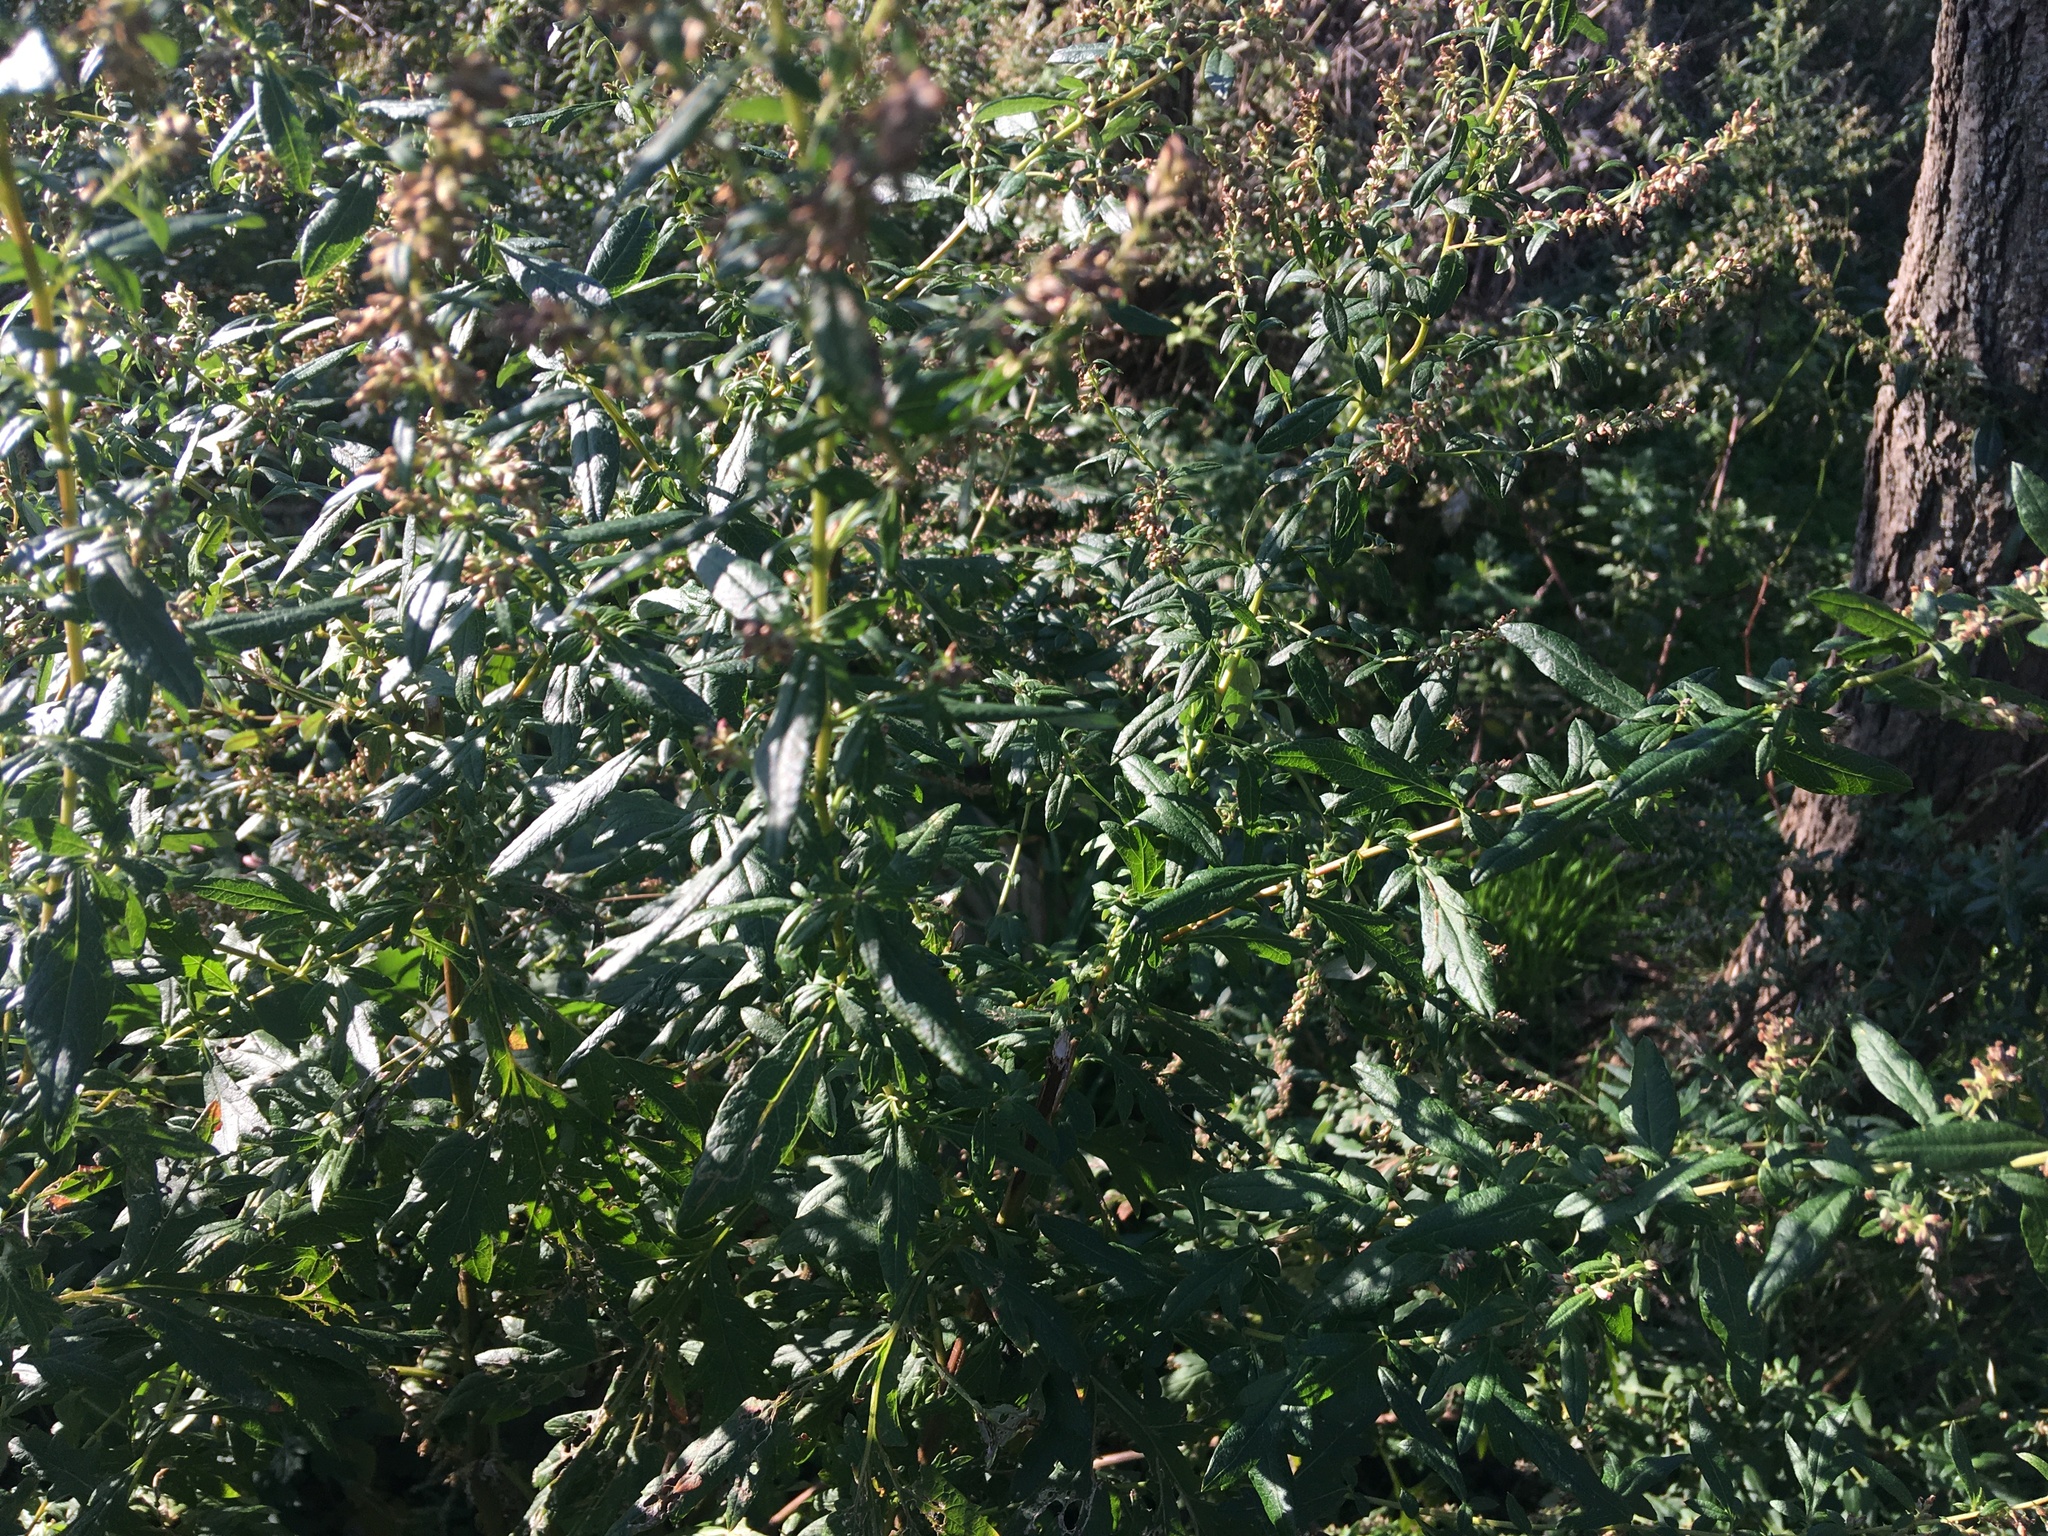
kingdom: Plantae
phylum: Tracheophyta
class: Magnoliopsida
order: Asterales
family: Asteraceae
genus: Artemisia
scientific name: Artemisia vulgaris
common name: Mugwort
